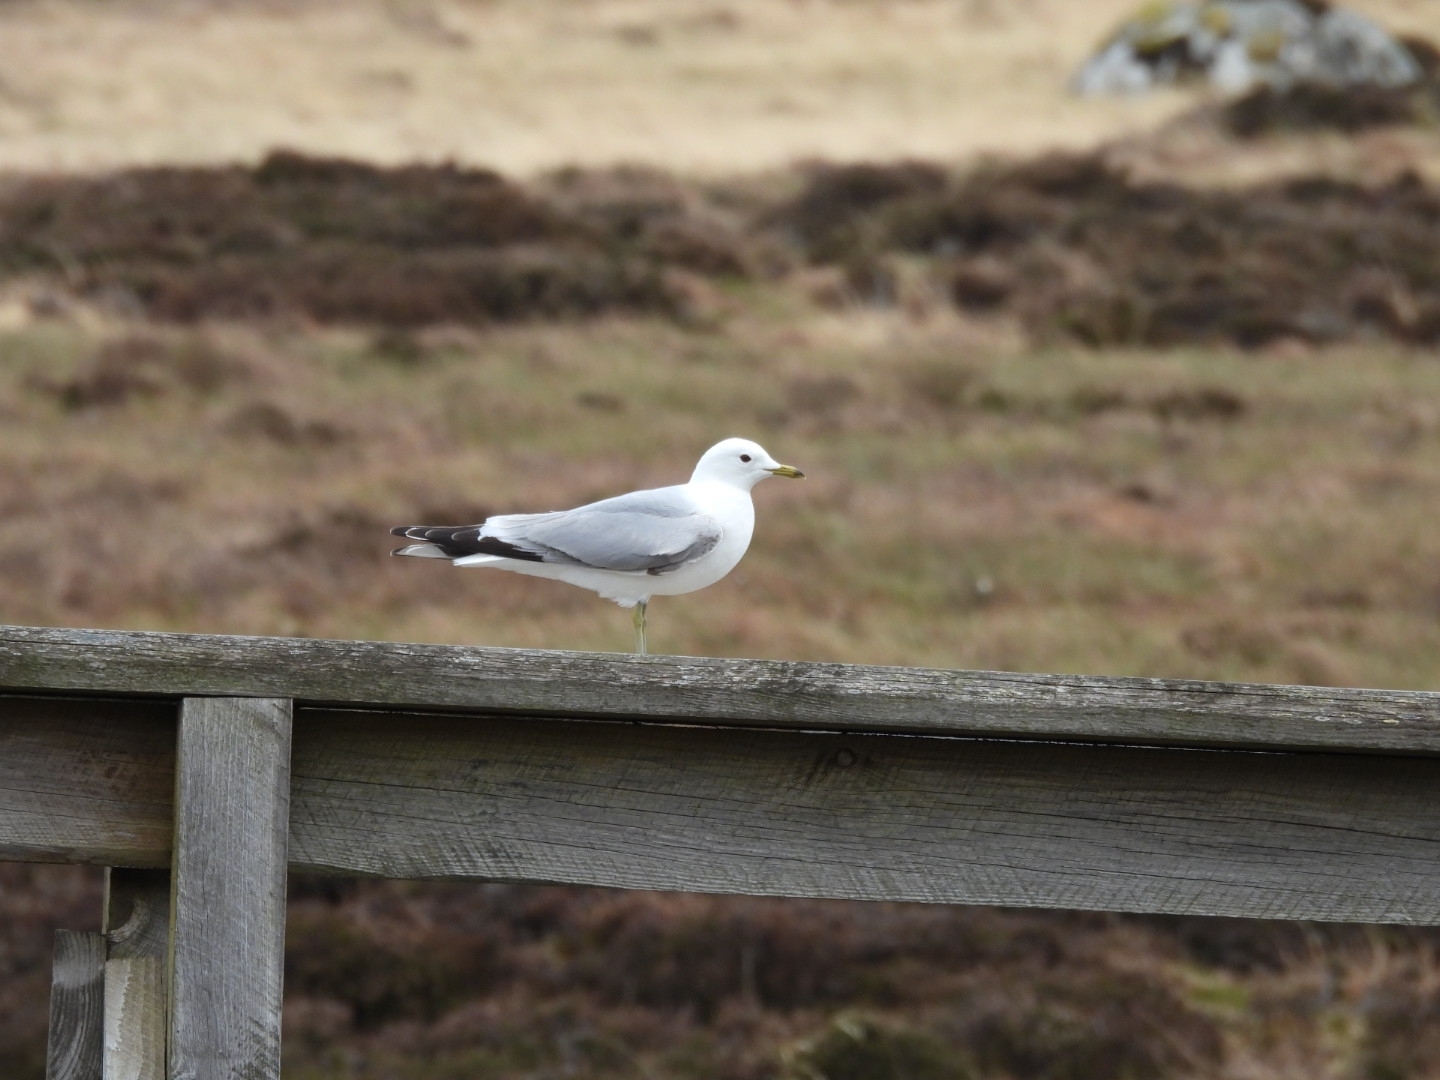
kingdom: Animalia
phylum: Chordata
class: Aves
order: Charadriiformes
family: Laridae
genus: Larus
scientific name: Larus canus
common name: Mew gull
